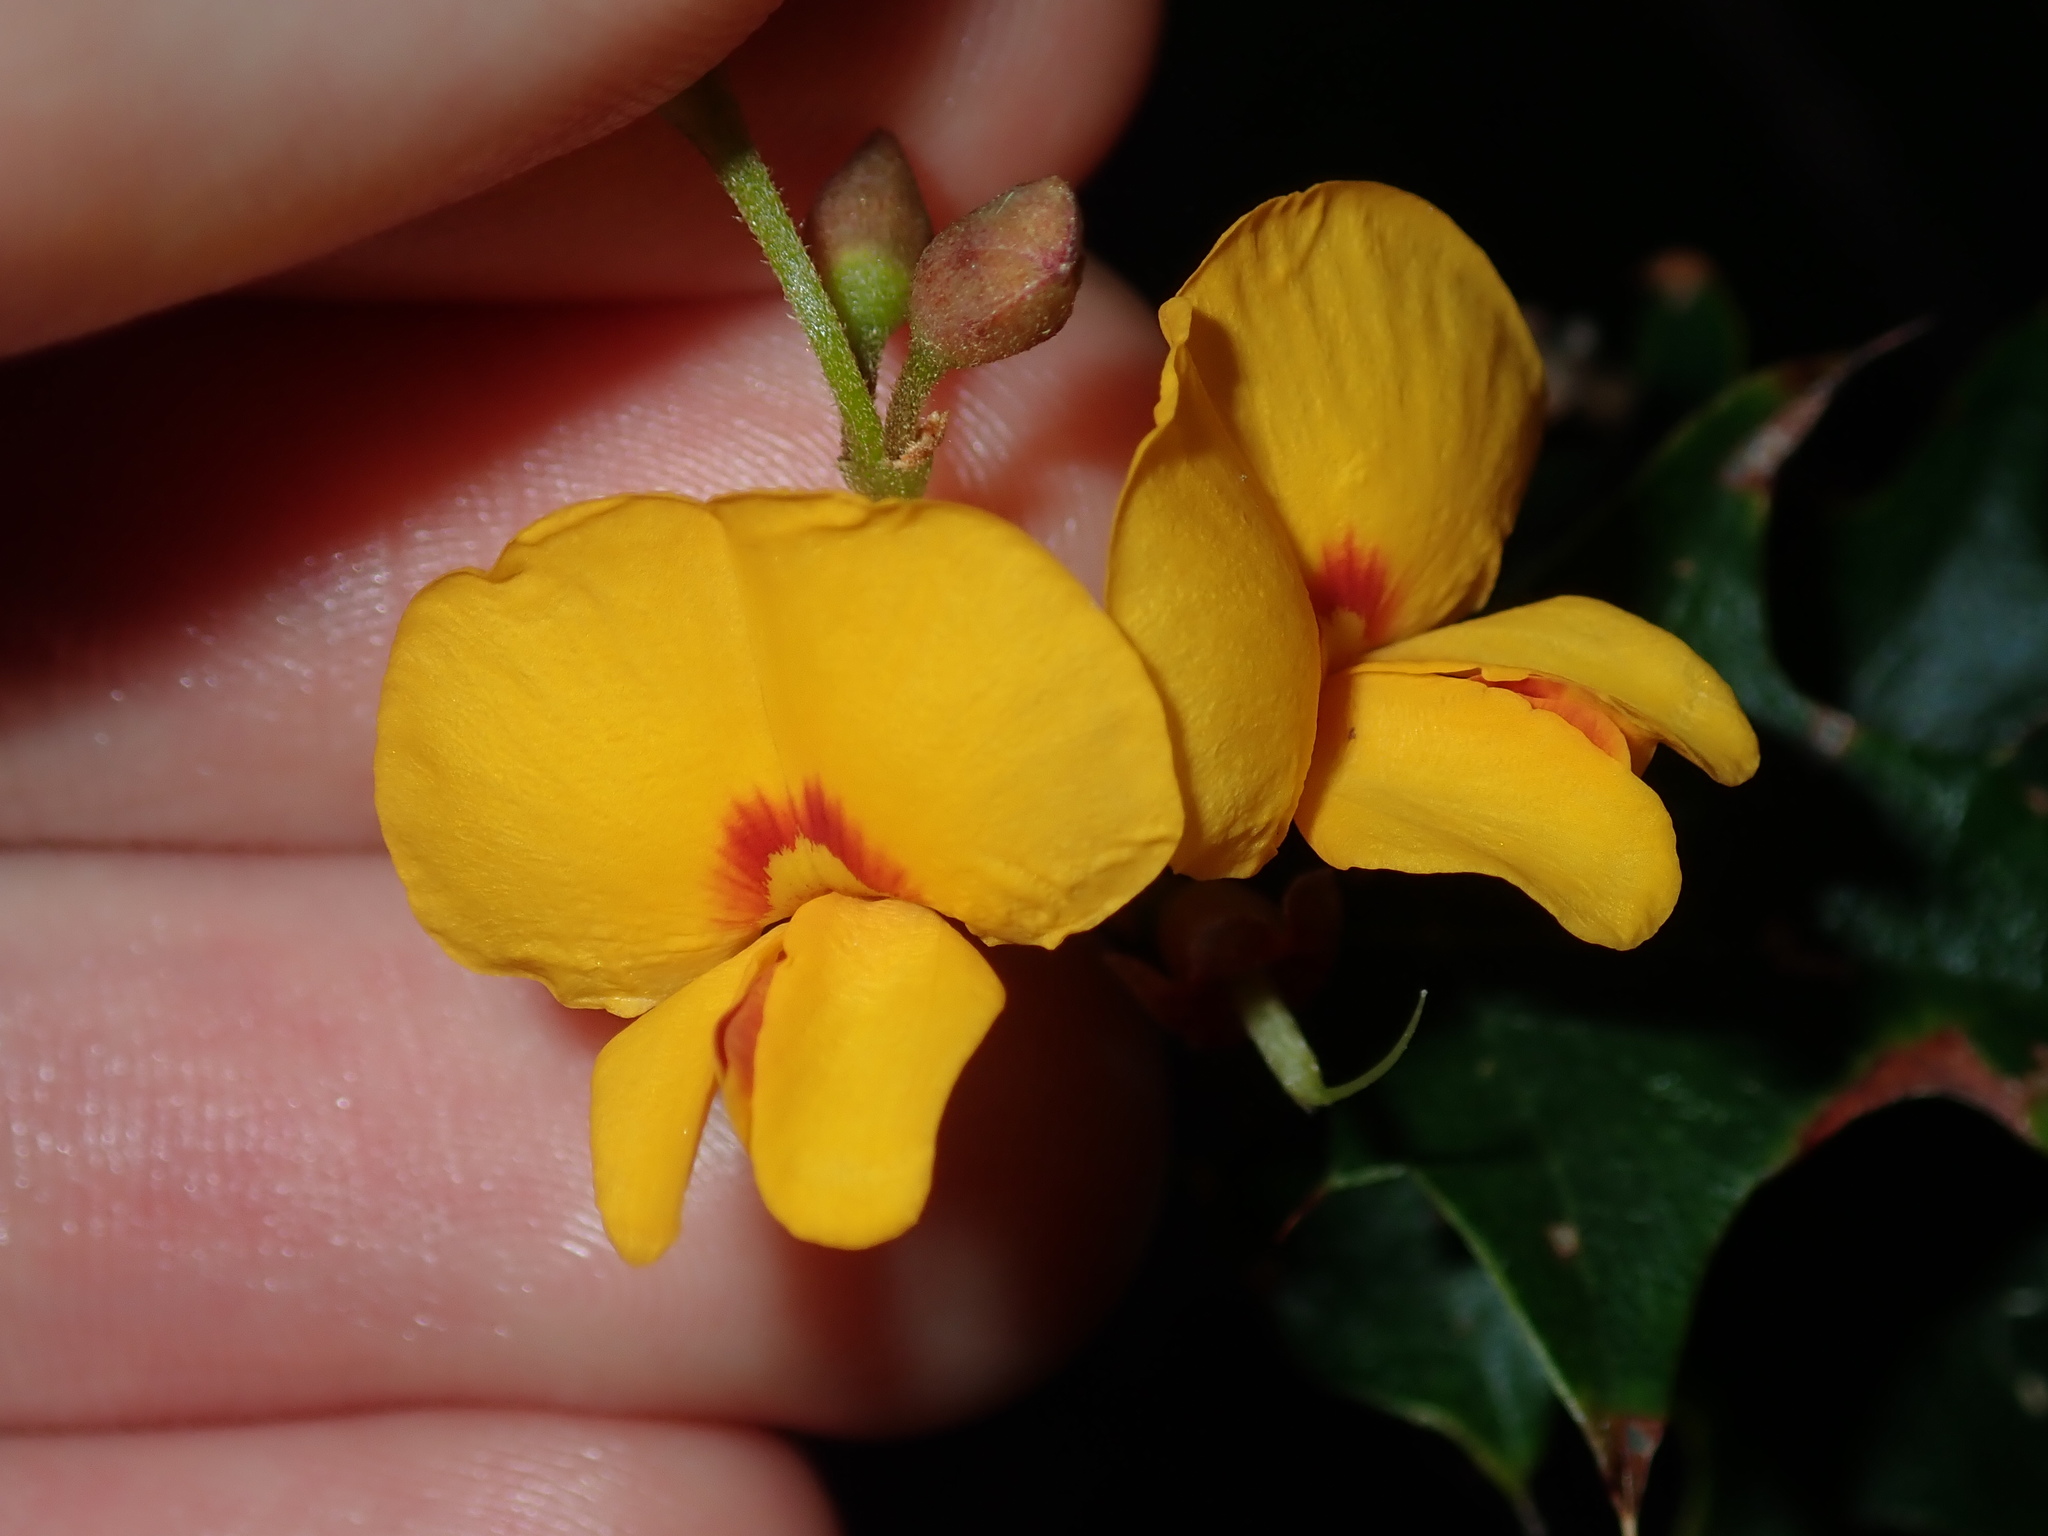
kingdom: Plantae
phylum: Tracheophyta
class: Magnoliopsida
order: Fabales
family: Fabaceae
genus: Podolobium
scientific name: Podolobium ilicifolium
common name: Native holly
